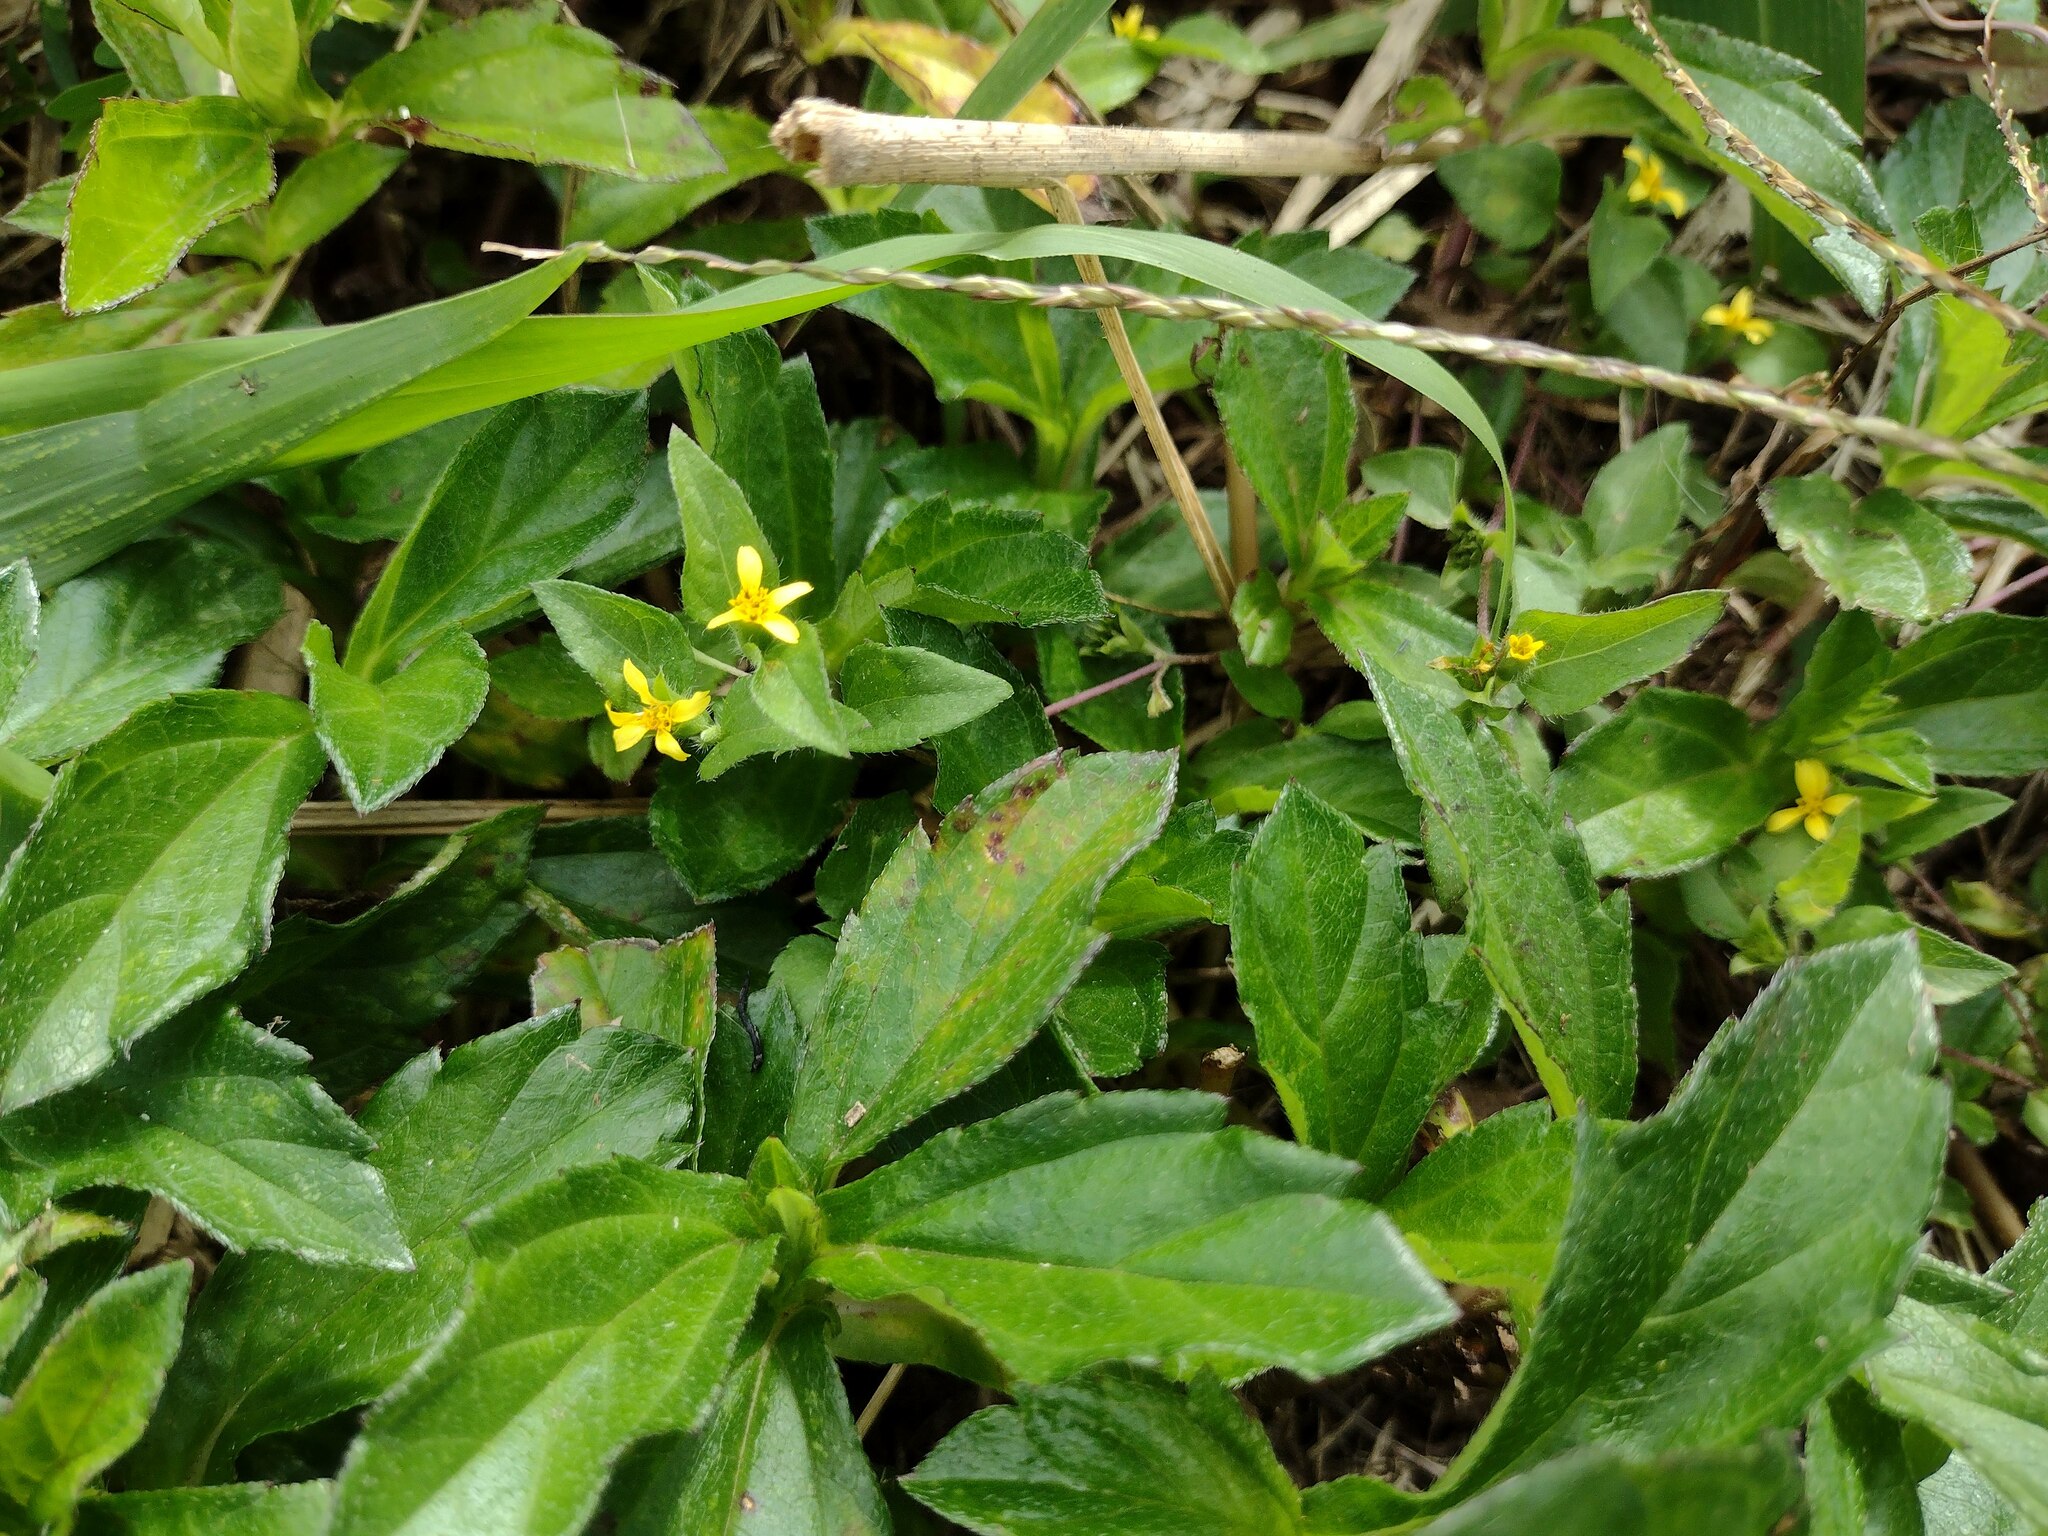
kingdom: Plantae
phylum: Tracheophyta
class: Magnoliopsida
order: Asterales
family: Asteraceae
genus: Calyptocarpus
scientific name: Calyptocarpus vialis
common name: Straggler daisy
